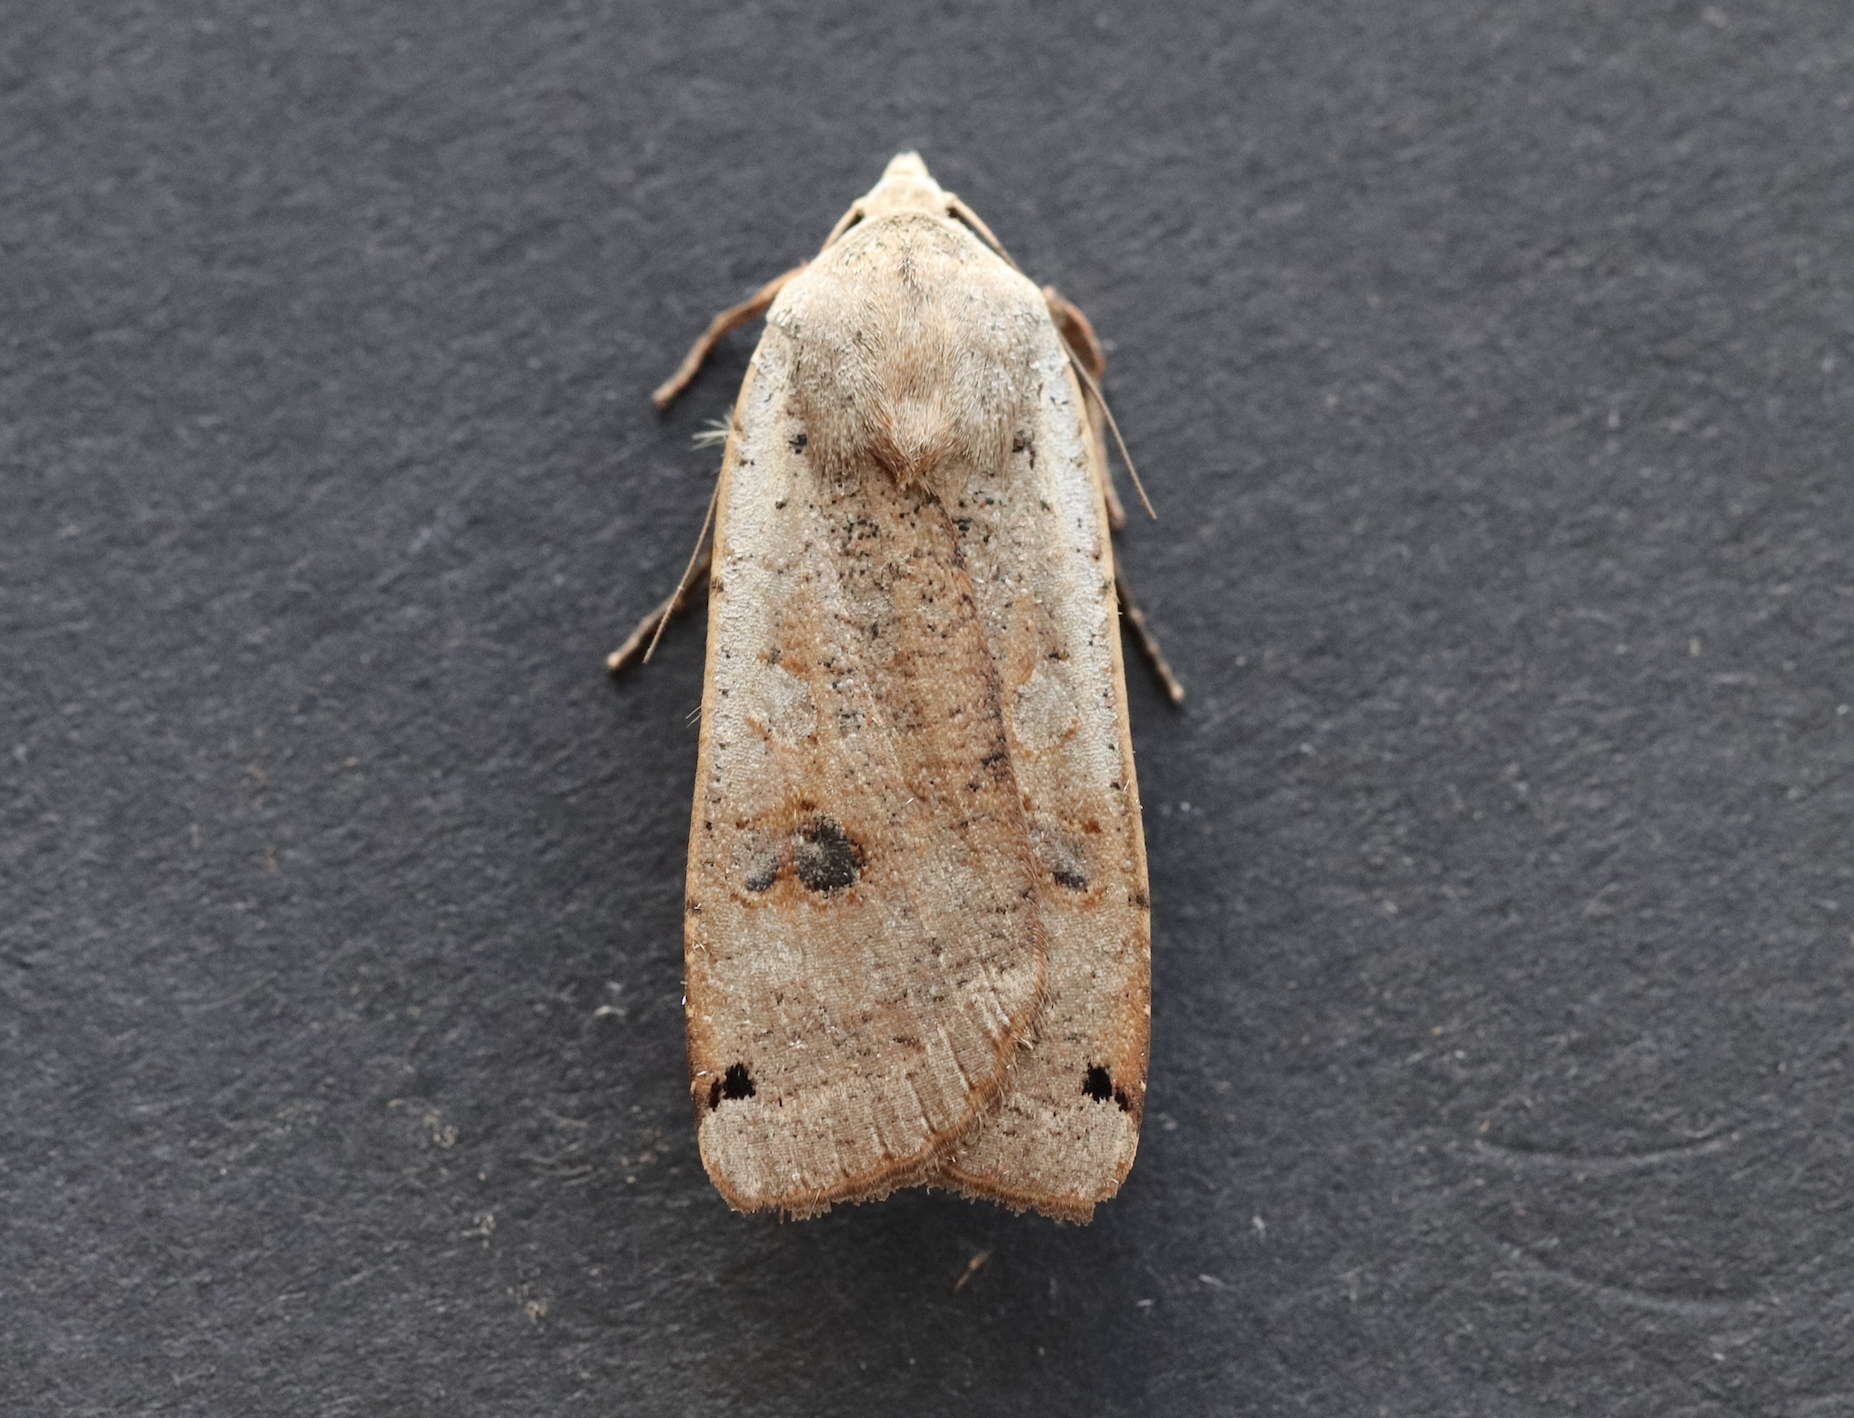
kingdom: Animalia
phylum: Arthropoda
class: Insecta
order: Lepidoptera
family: Noctuidae
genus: Noctua
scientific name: Noctua pronuba
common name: Large yellow underwing
